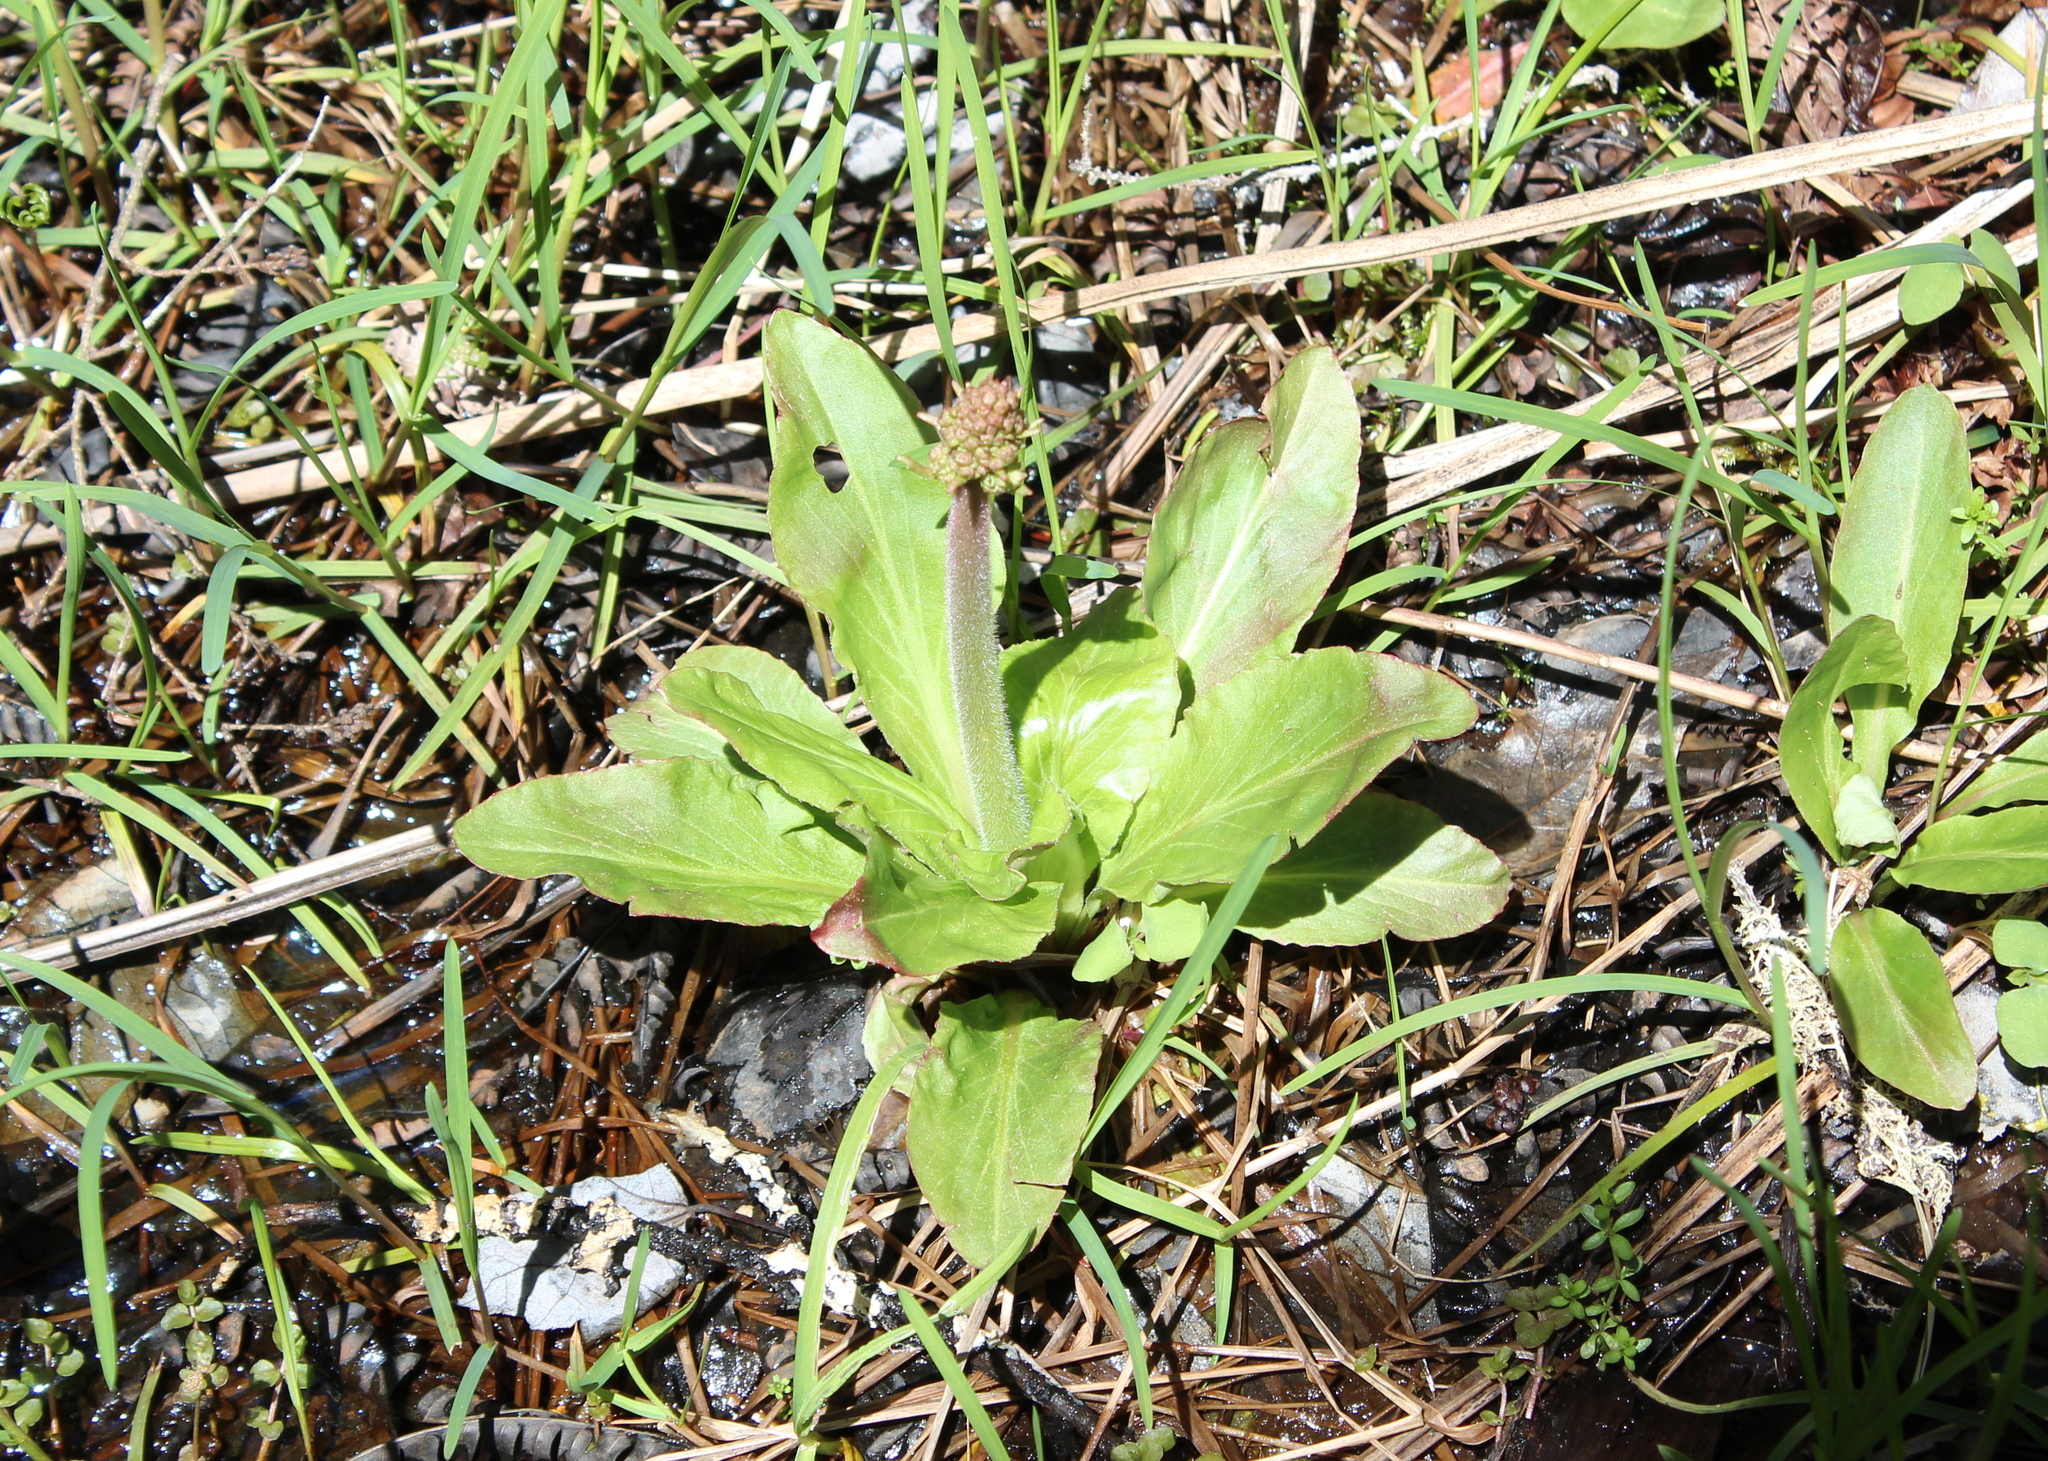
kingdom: Plantae
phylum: Tracheophyta
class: Magnoliopsida
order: Saxifragales
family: Saxifragaceae
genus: Micranthes
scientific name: Micranthes pensylvanica
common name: Marsh saxifrage
